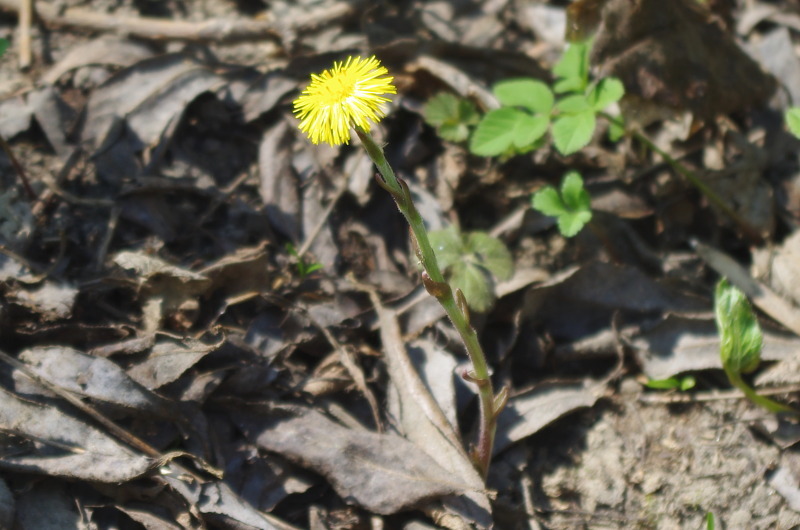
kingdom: Plantae
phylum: Tracheophyta
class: Magnoliopsida
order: Asterales
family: Asteraceae
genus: Tussilago
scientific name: Tussilago farfara
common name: Coltsfoot
